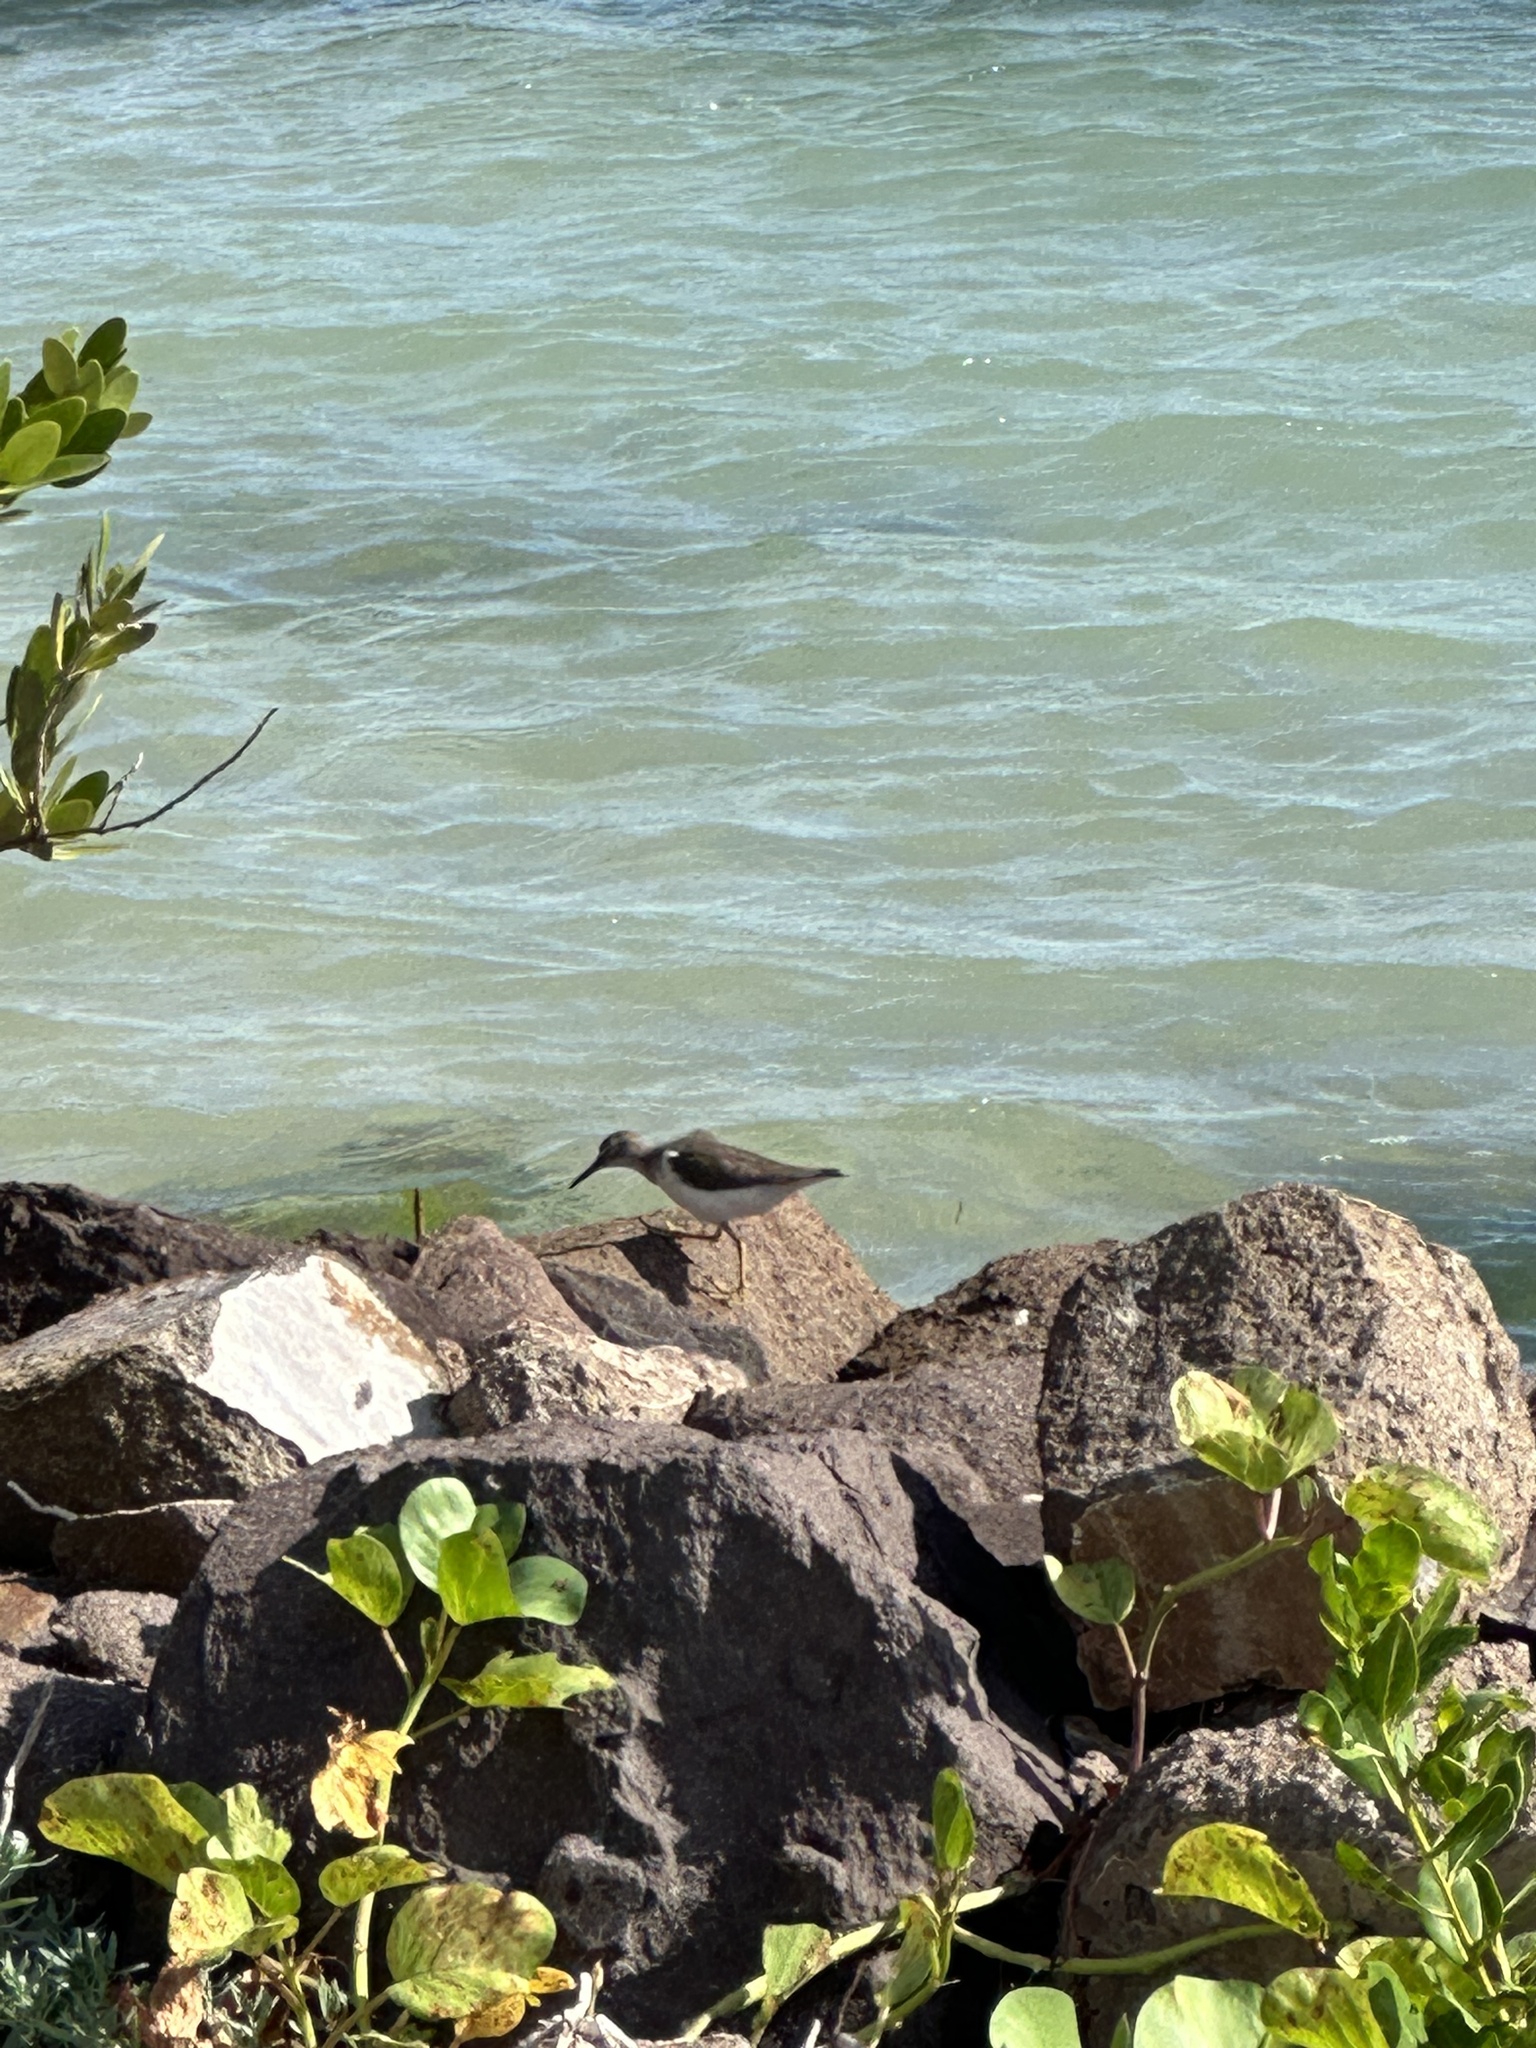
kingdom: Animalia
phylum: Chordata
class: Aves
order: Charadriiformes
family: Scolopacidae
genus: Actitis
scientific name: Actitis macularius
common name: Spotted sandpiper
